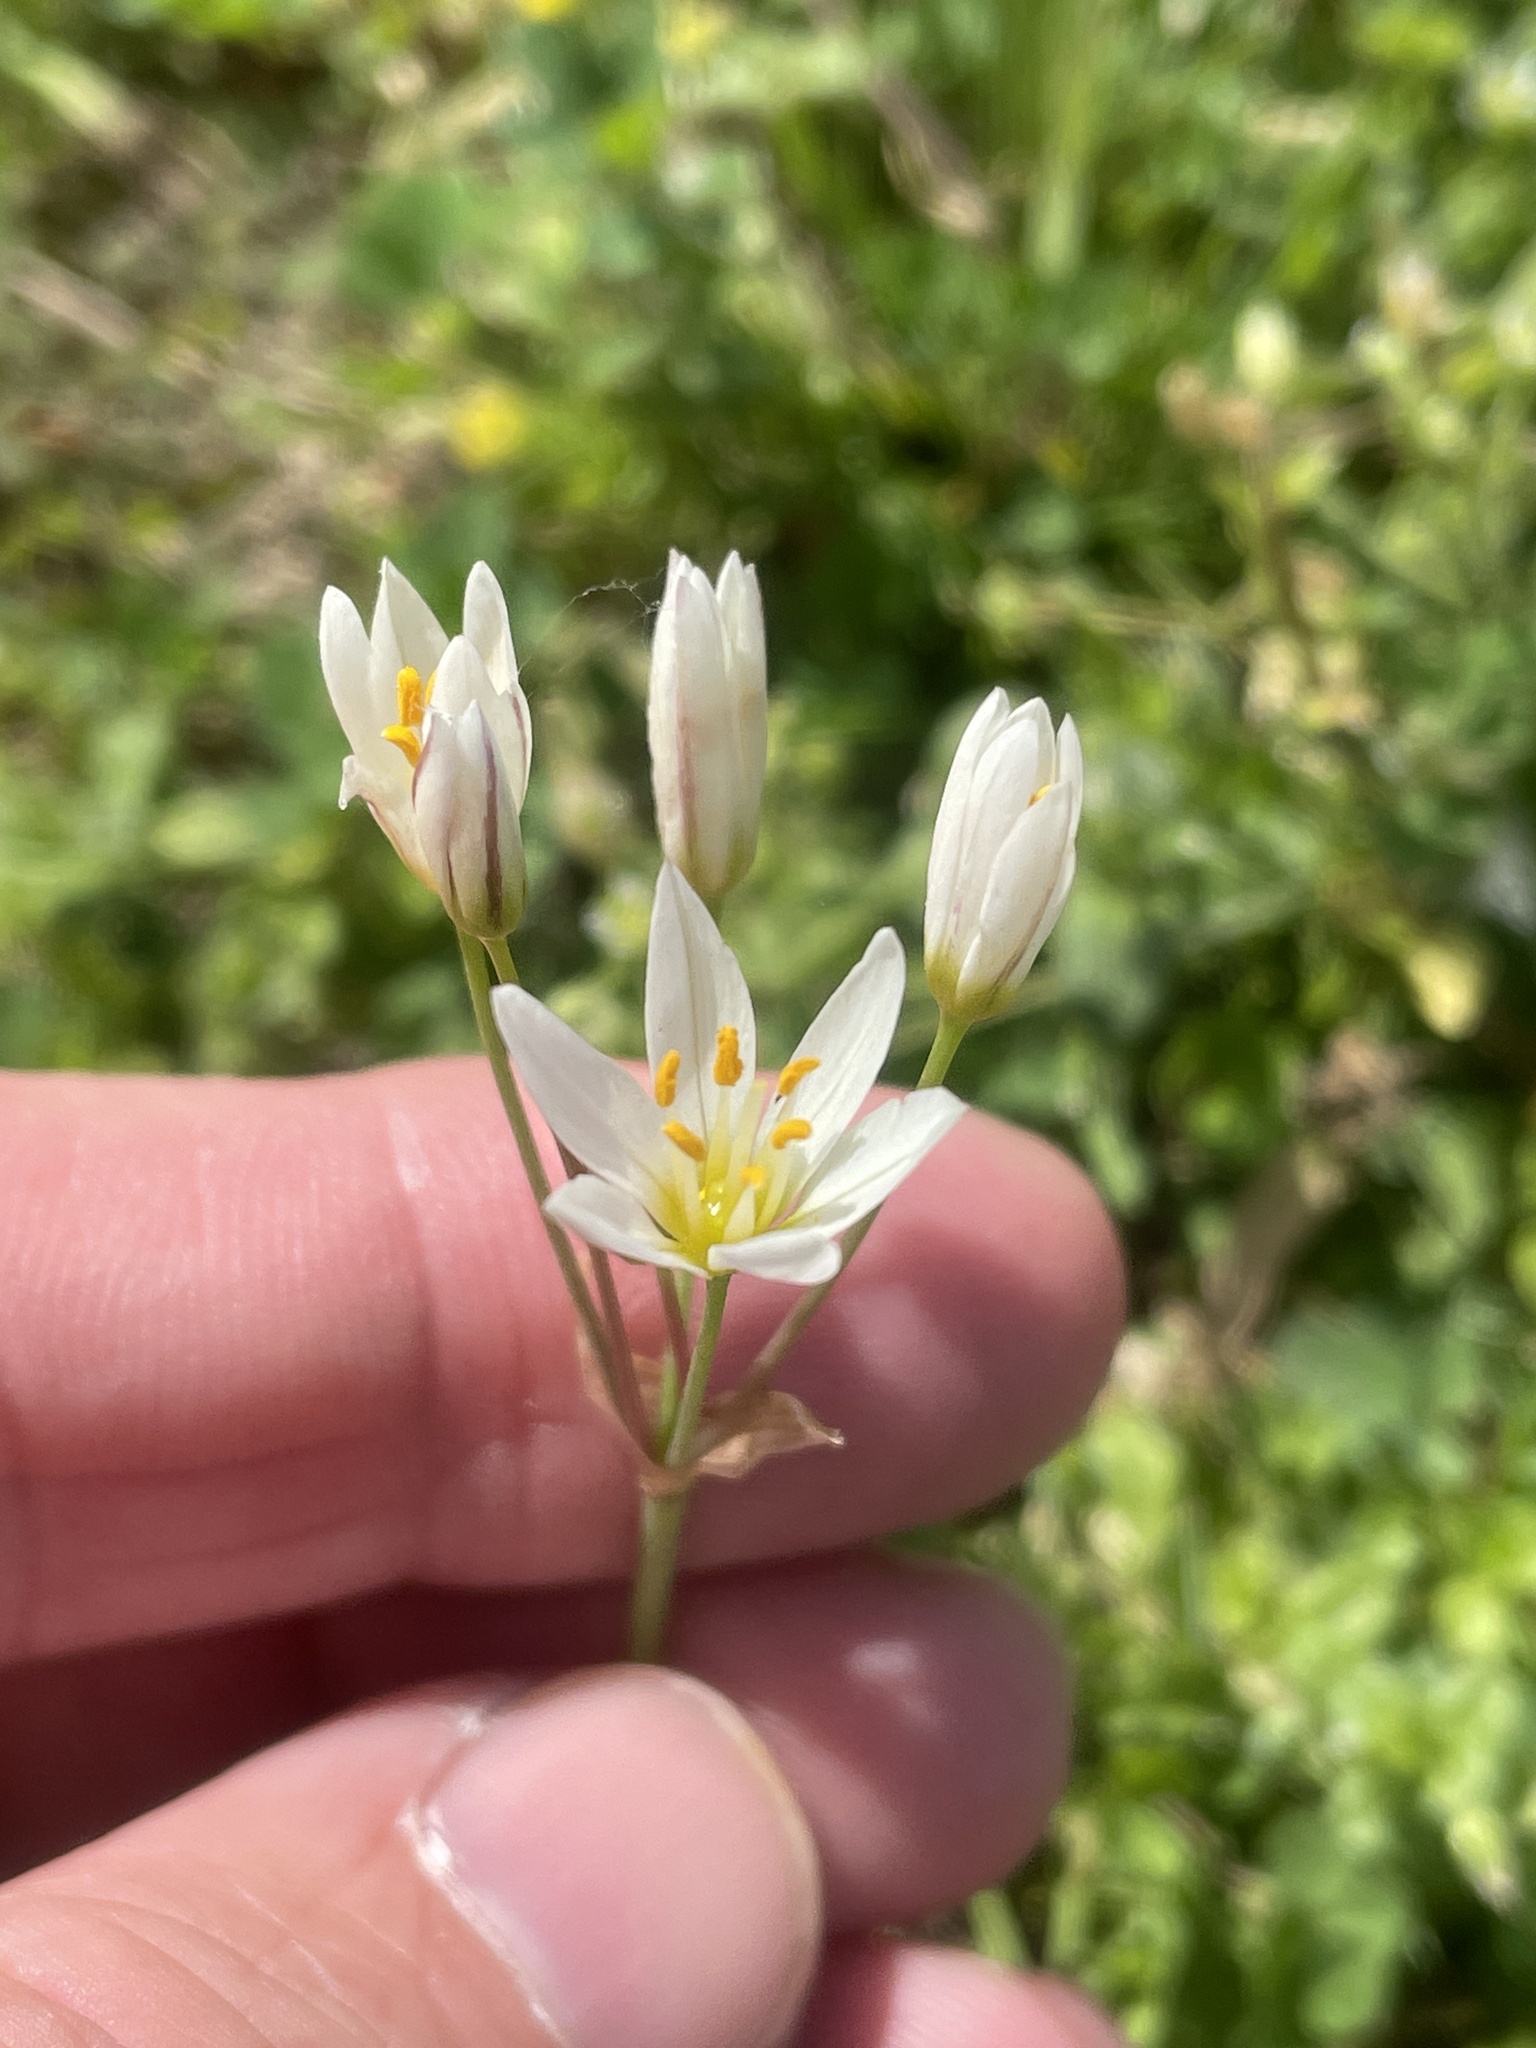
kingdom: Plantae
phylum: Tracheophyta
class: Liliopsida
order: Asparagales
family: Amaryllidaceae
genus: Nothoscordum
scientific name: Nothoscordum bivalve
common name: Crow-poison
